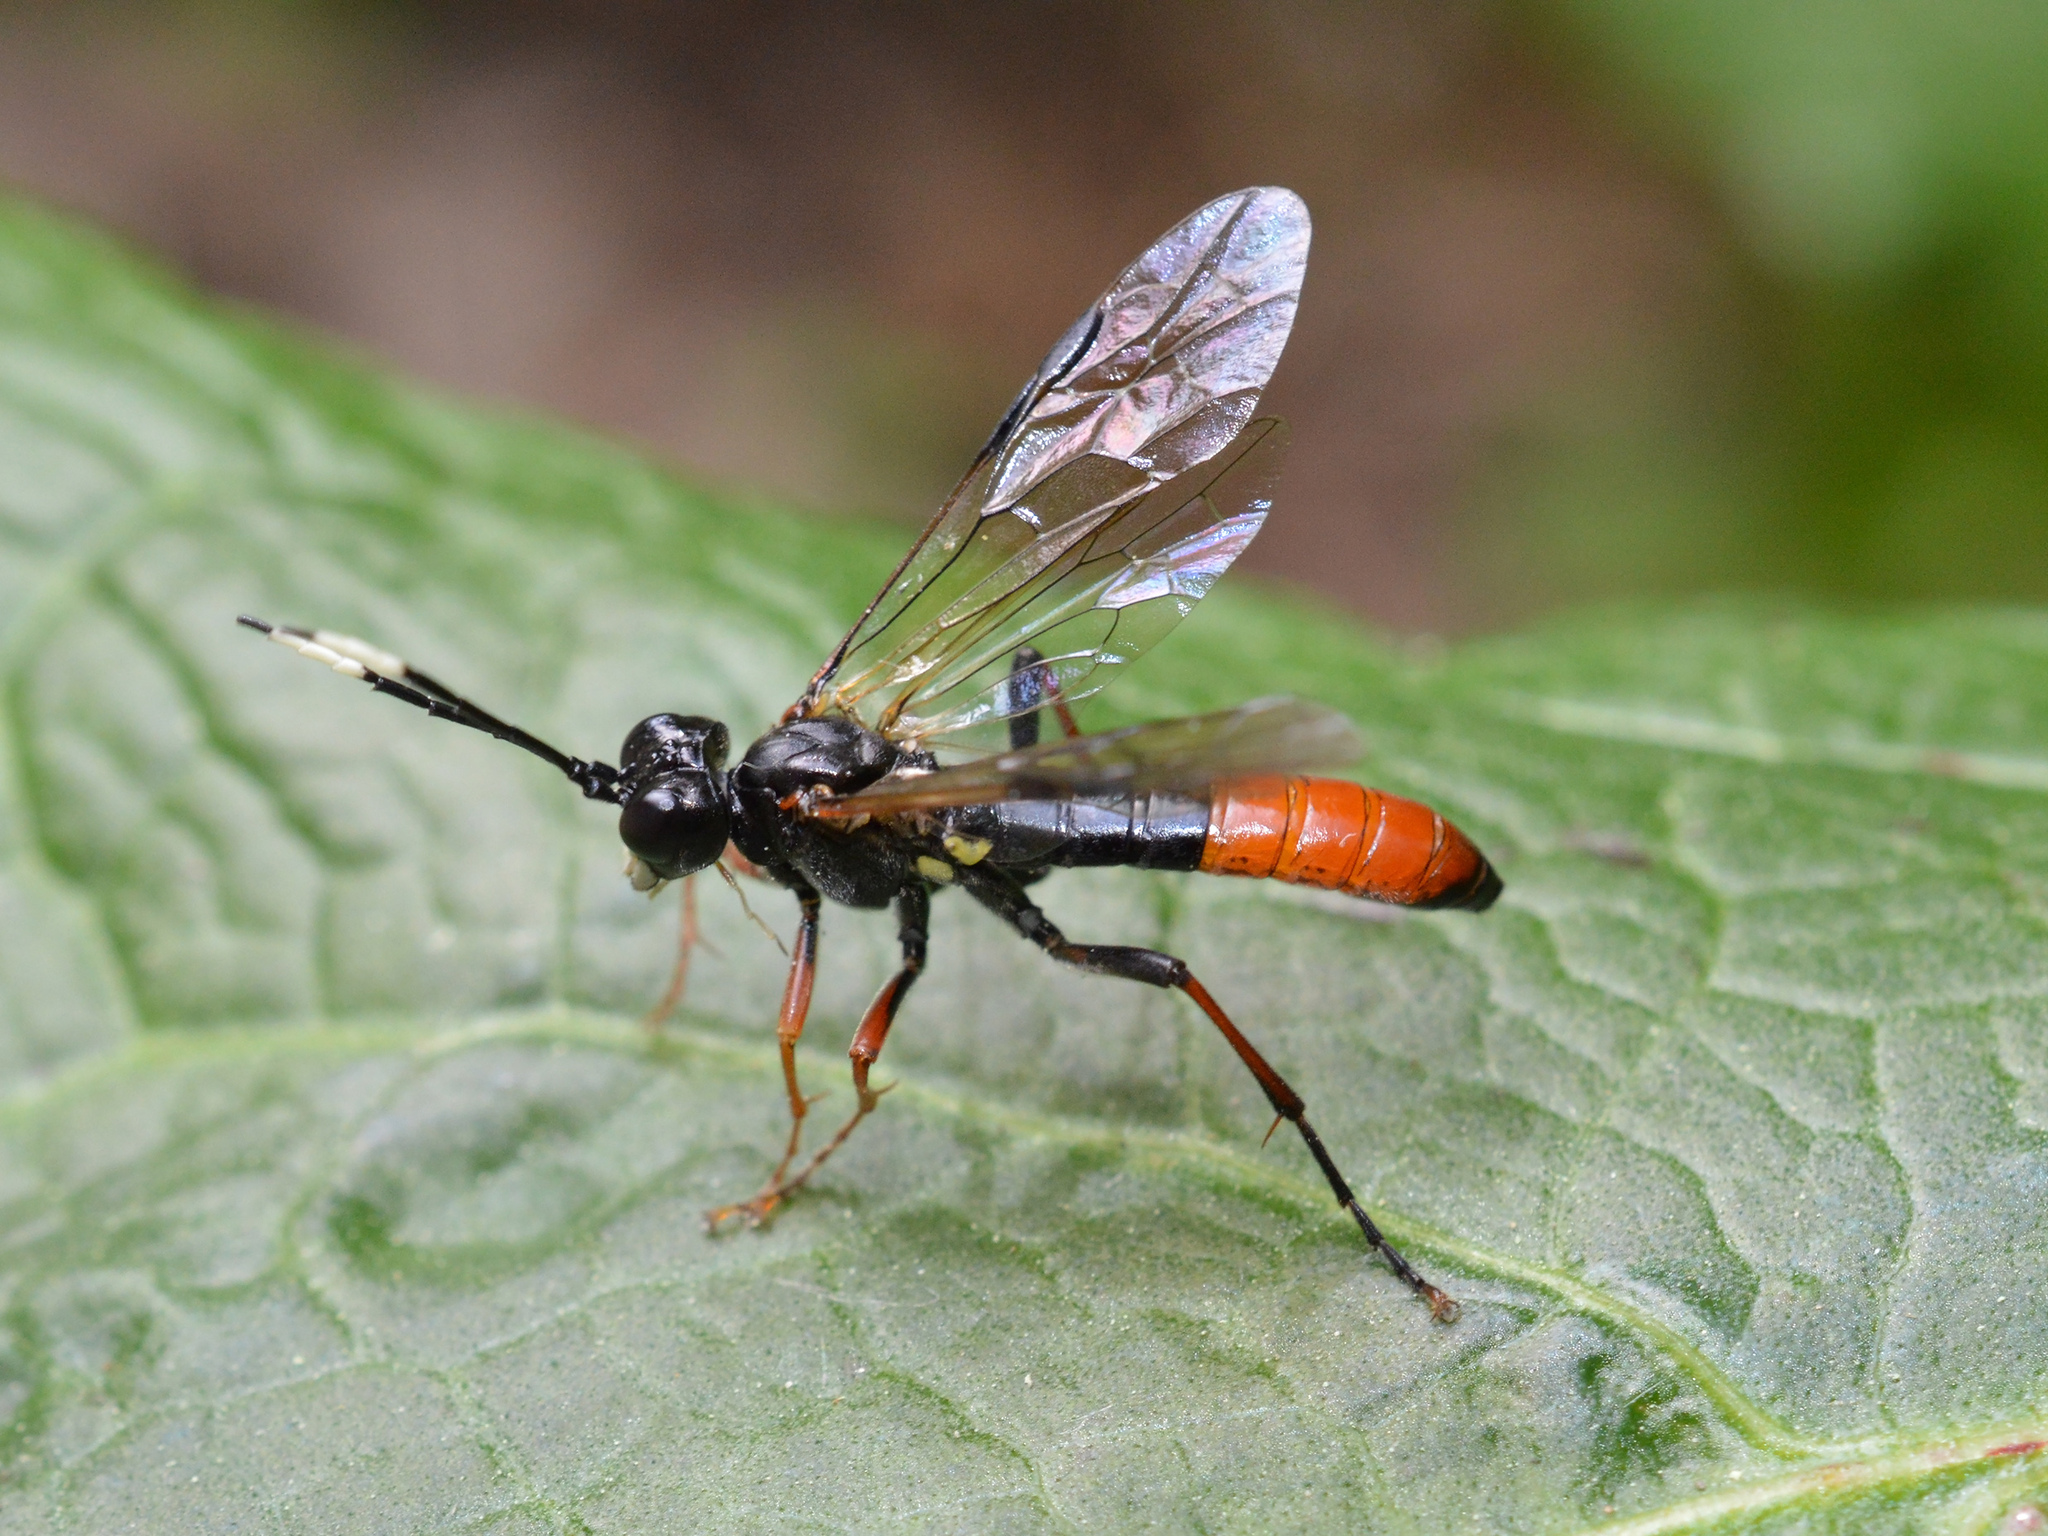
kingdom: Animalia
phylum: Arthropoda
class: Insecta
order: Hymenoptera
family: Tenthredinidae
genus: Tenthredo
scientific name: Tenthredo colon
